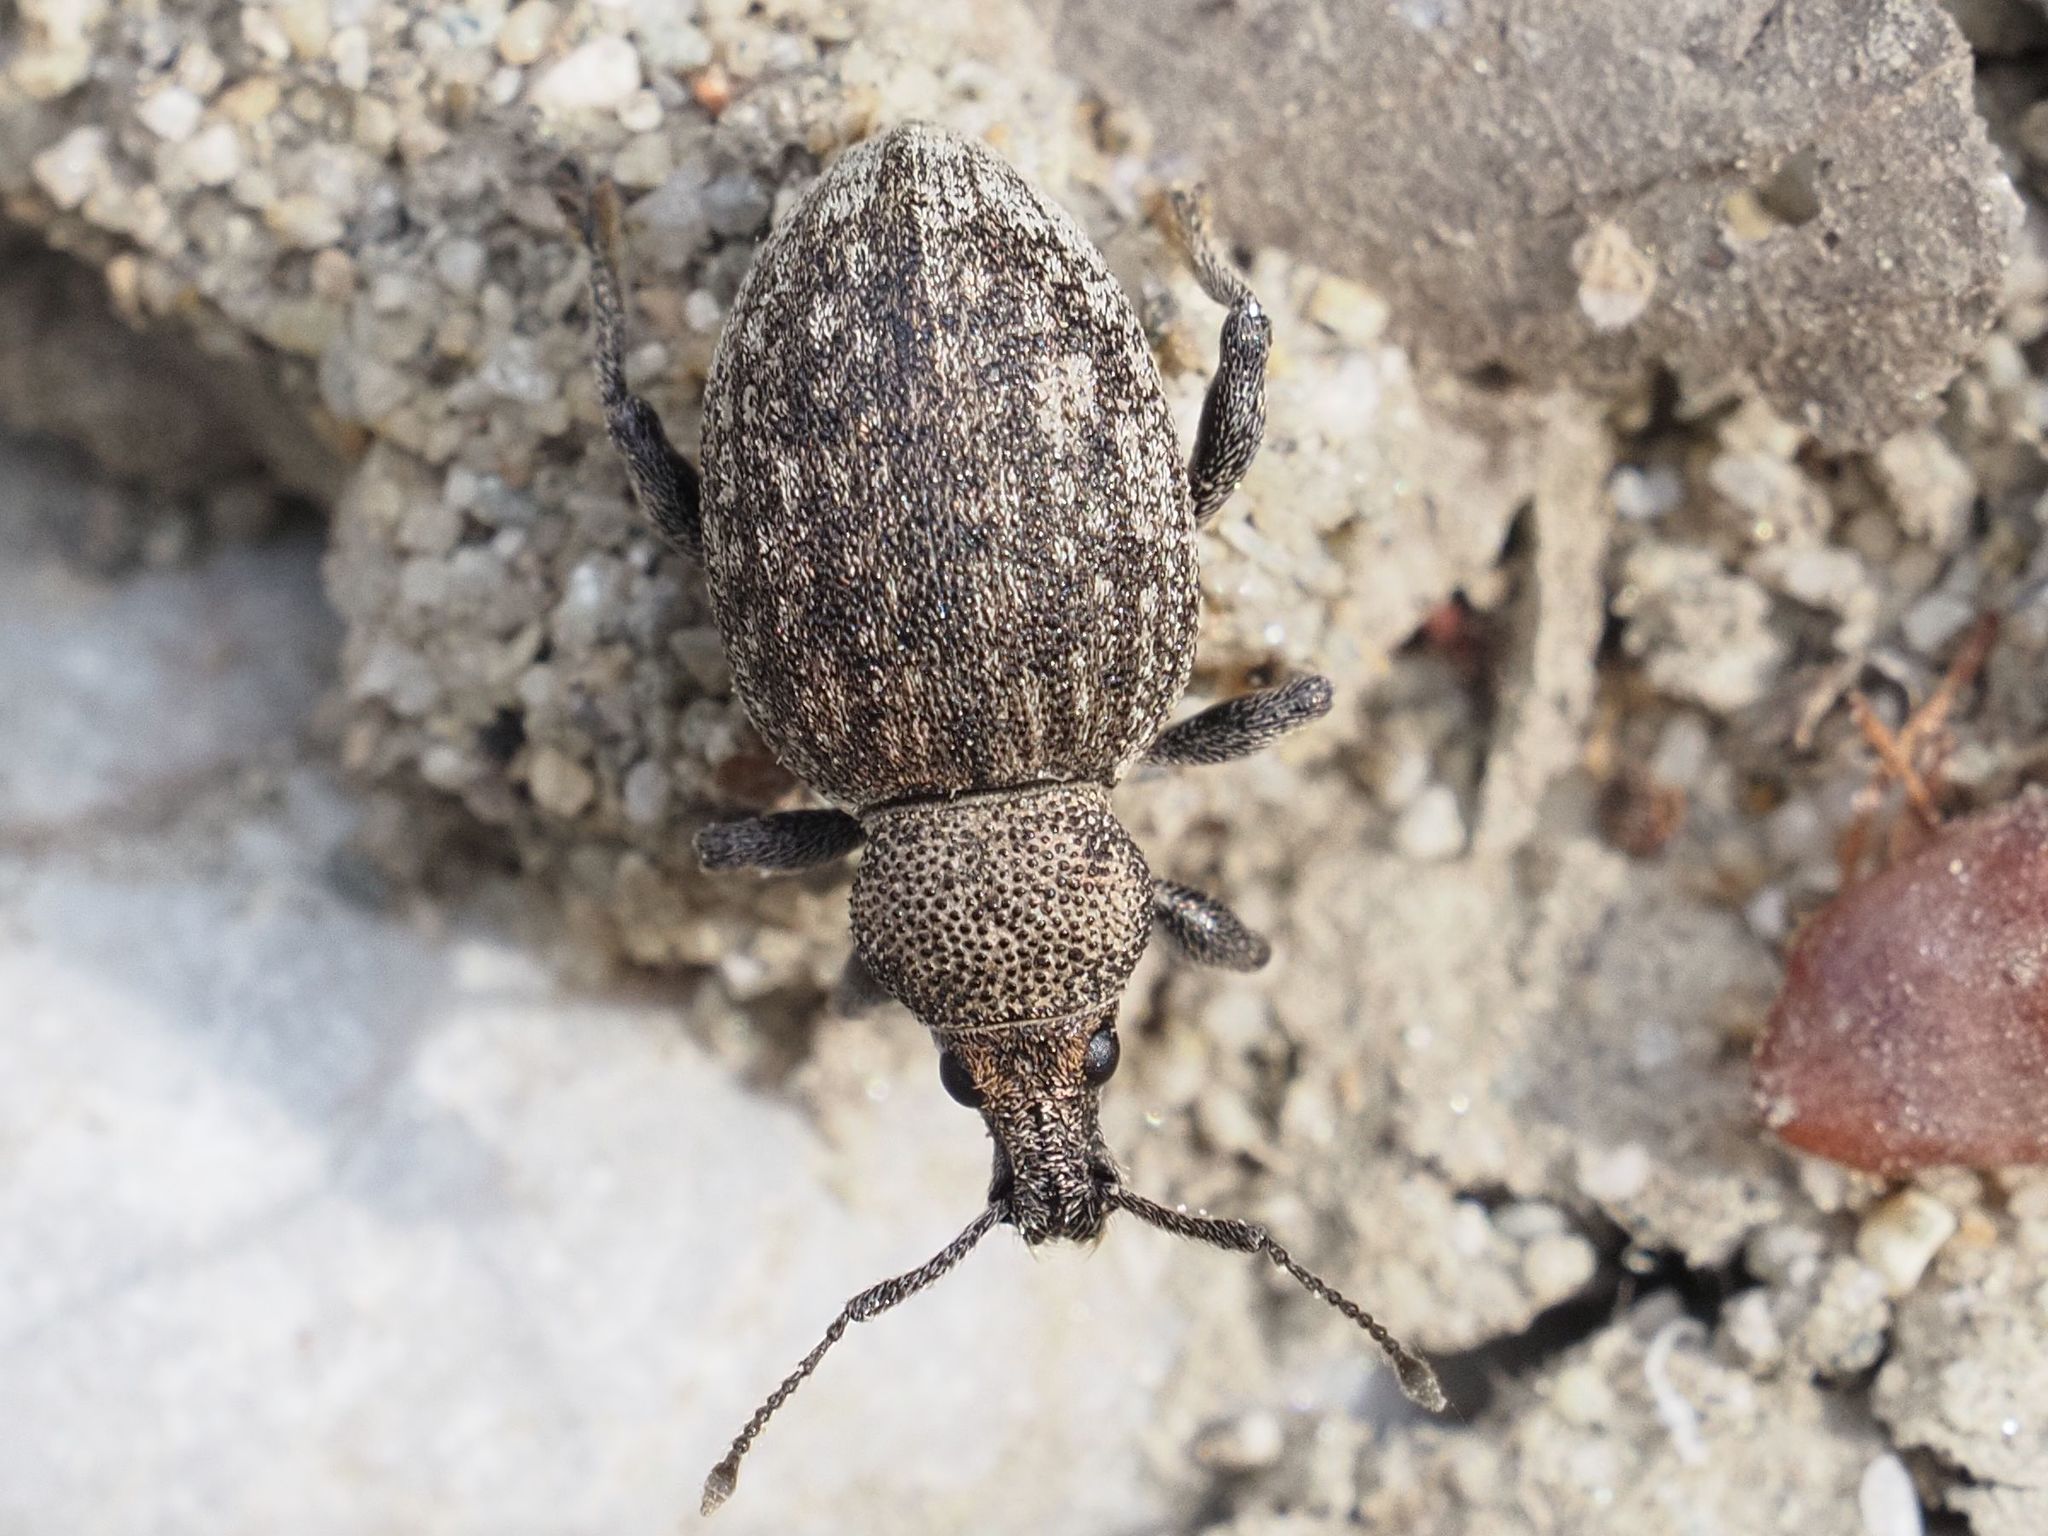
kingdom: Animalia
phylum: Arthropoda
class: Insecta
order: Coleoptera
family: Curculionidae
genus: Otiorhynchus
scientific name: Otiorhynchus ligustici
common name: Weevil
